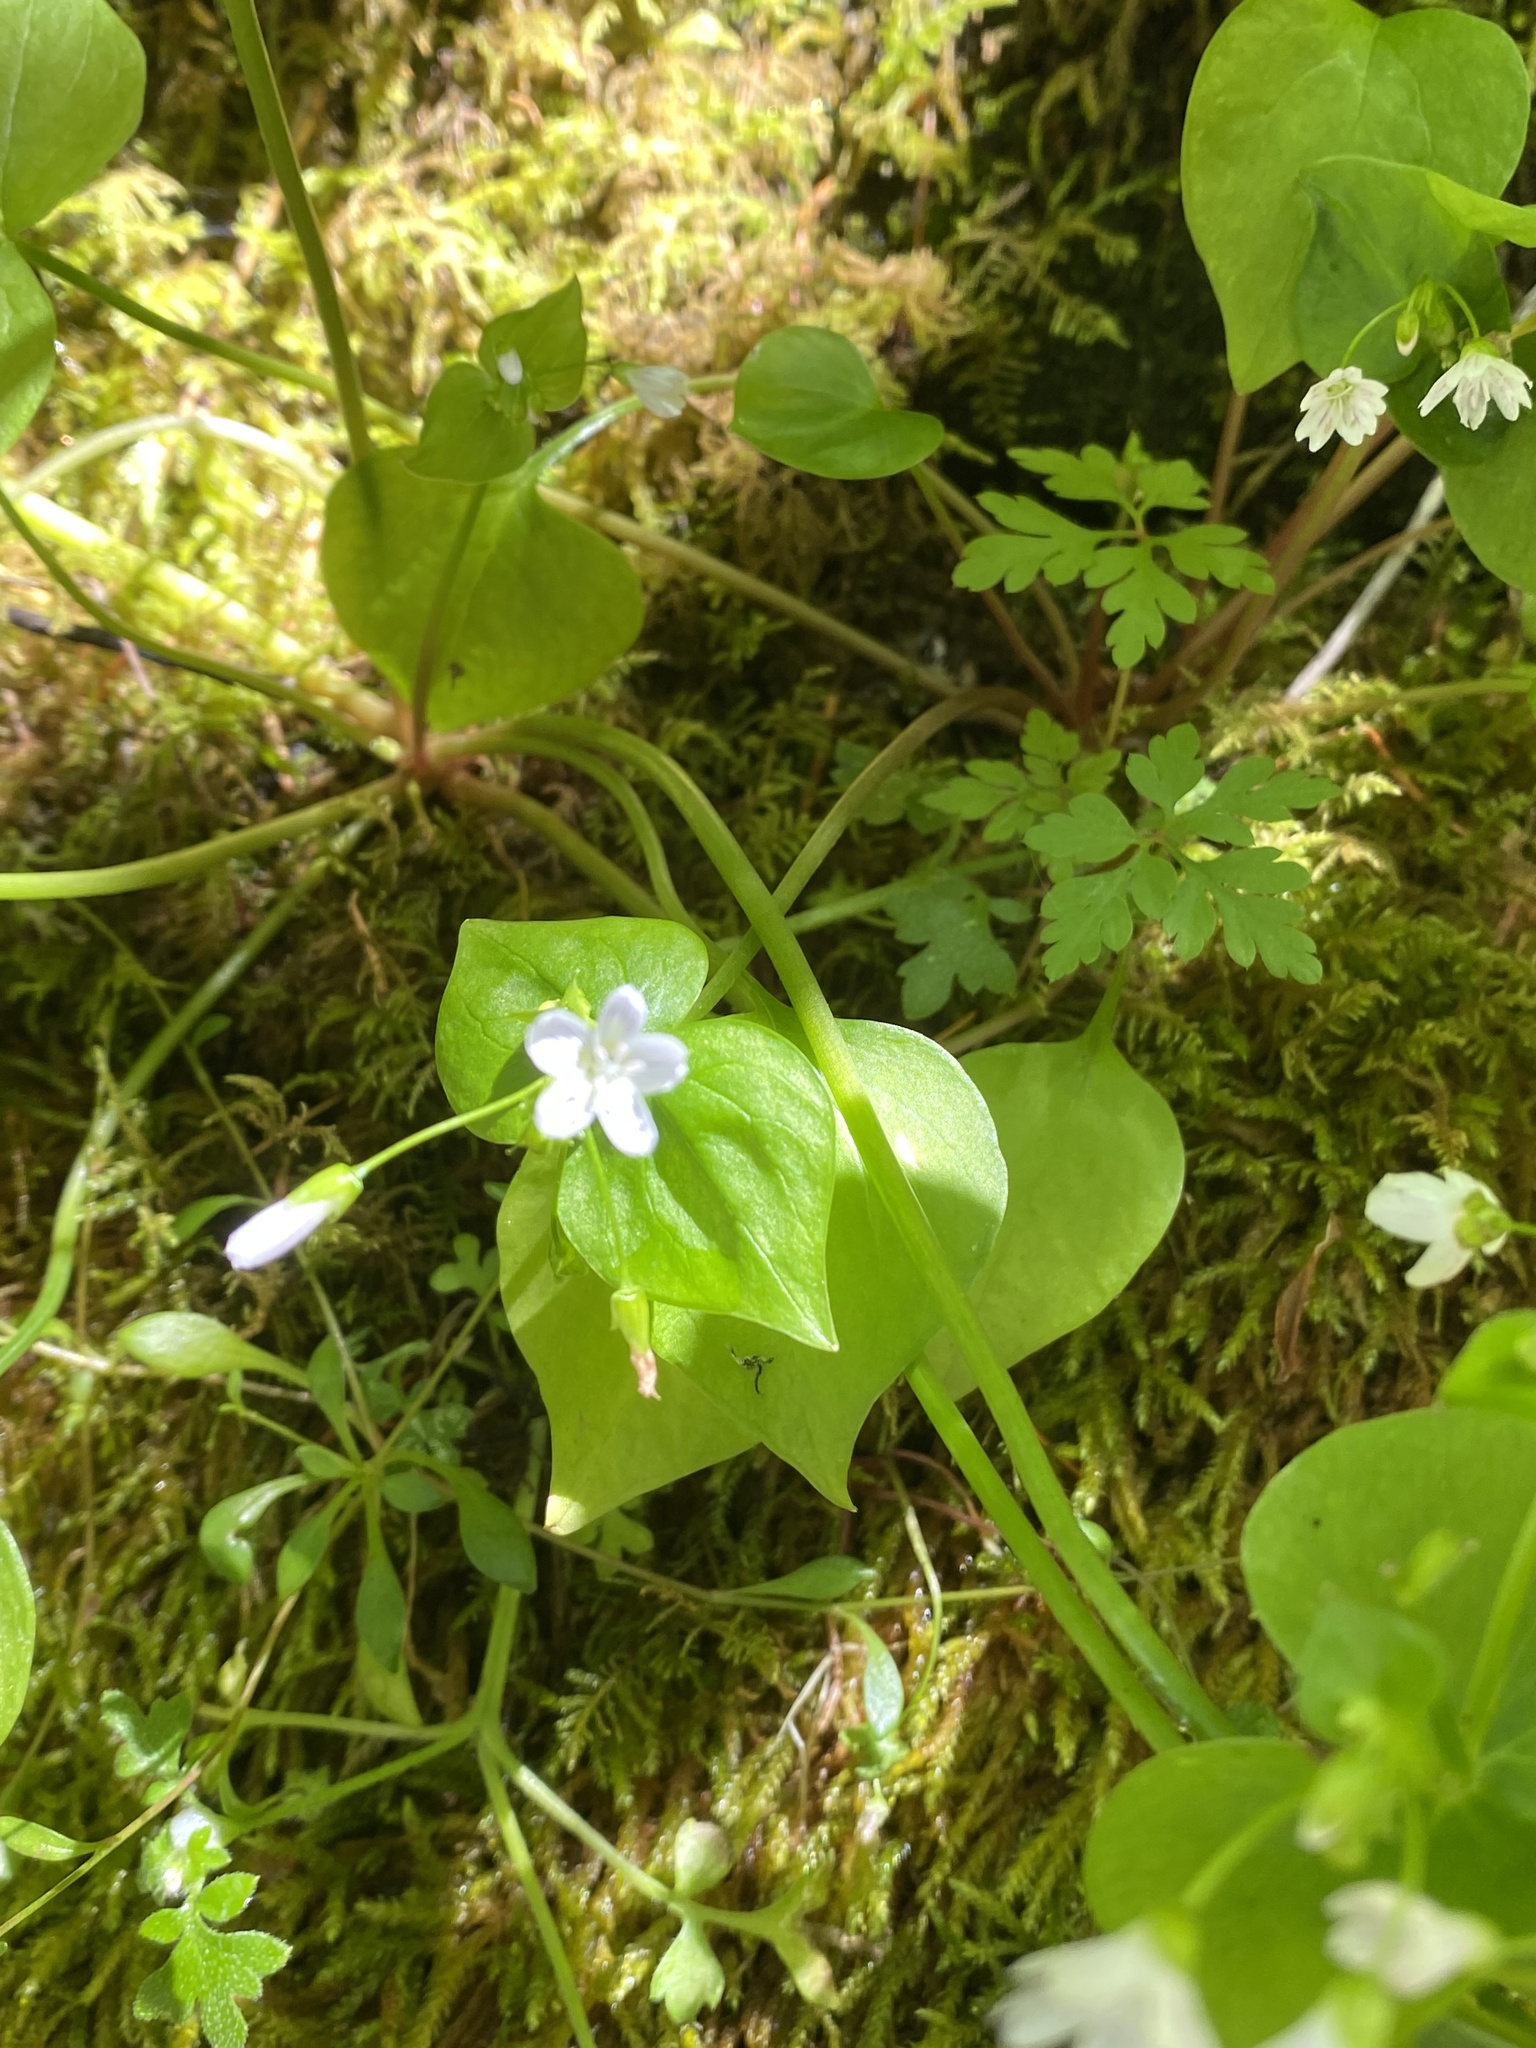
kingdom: Plantae
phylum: Tracheophyta
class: Magnoliopsida
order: Caryophyllales
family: Montiaceae
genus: Claytonia
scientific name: Claytonia sibirica
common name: Pink purslane
